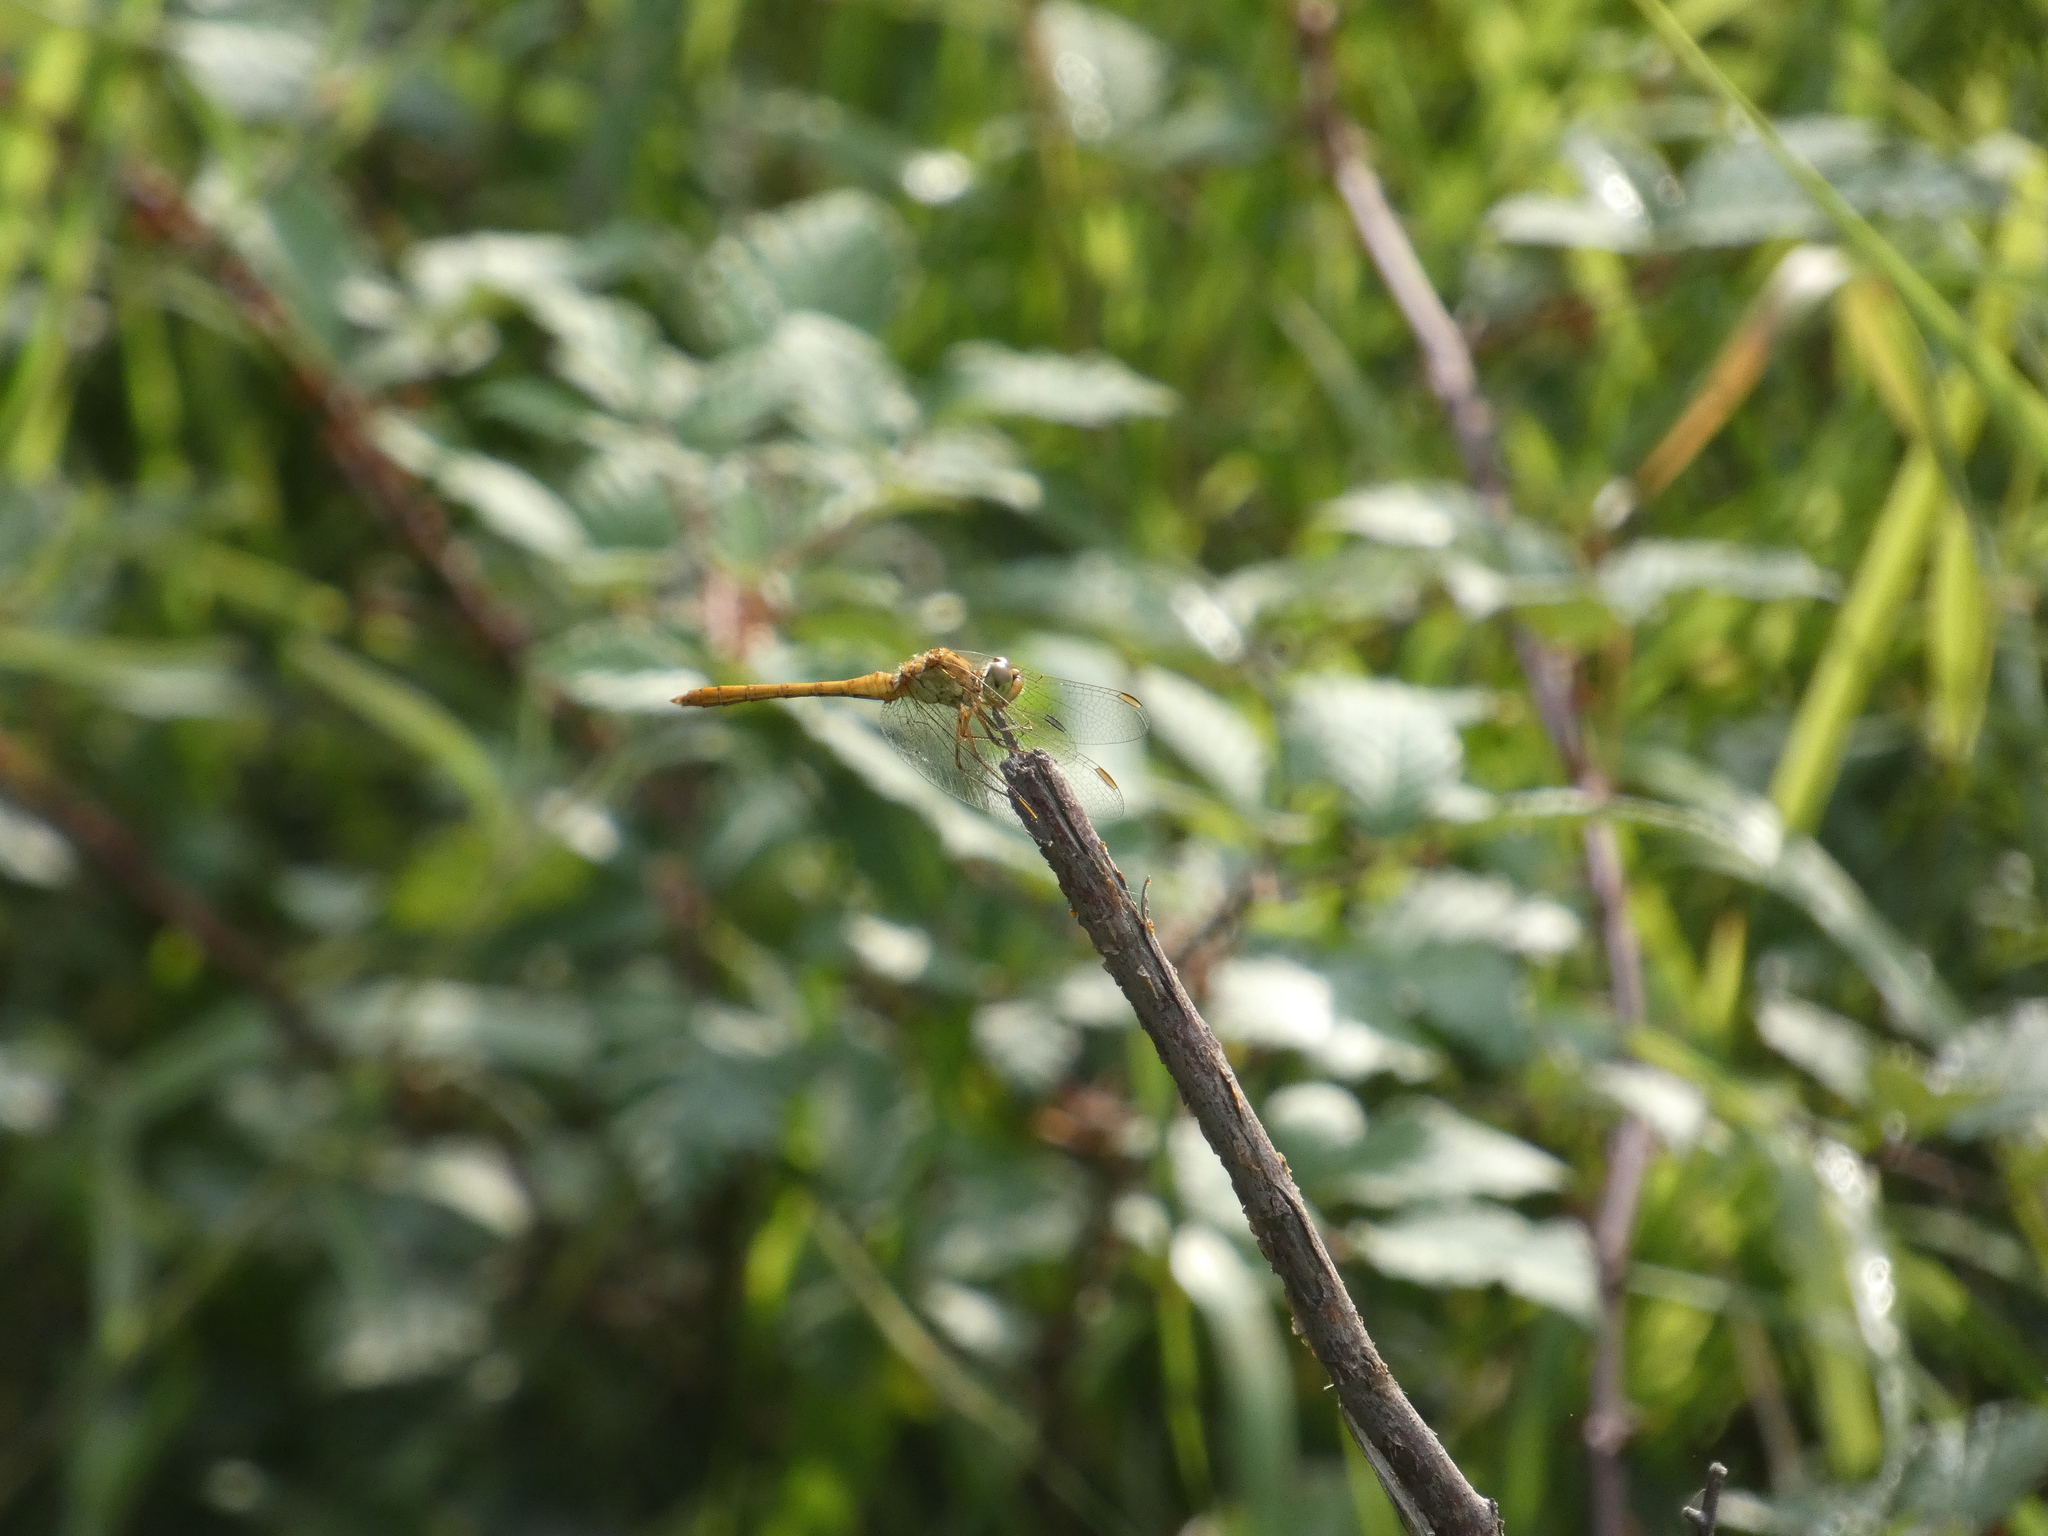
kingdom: Animalia
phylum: Arthropoda
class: Insecta
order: Odonata
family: Libellulidae
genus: Sympetrum
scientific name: Sympetrum meridionale
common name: Southern darter
